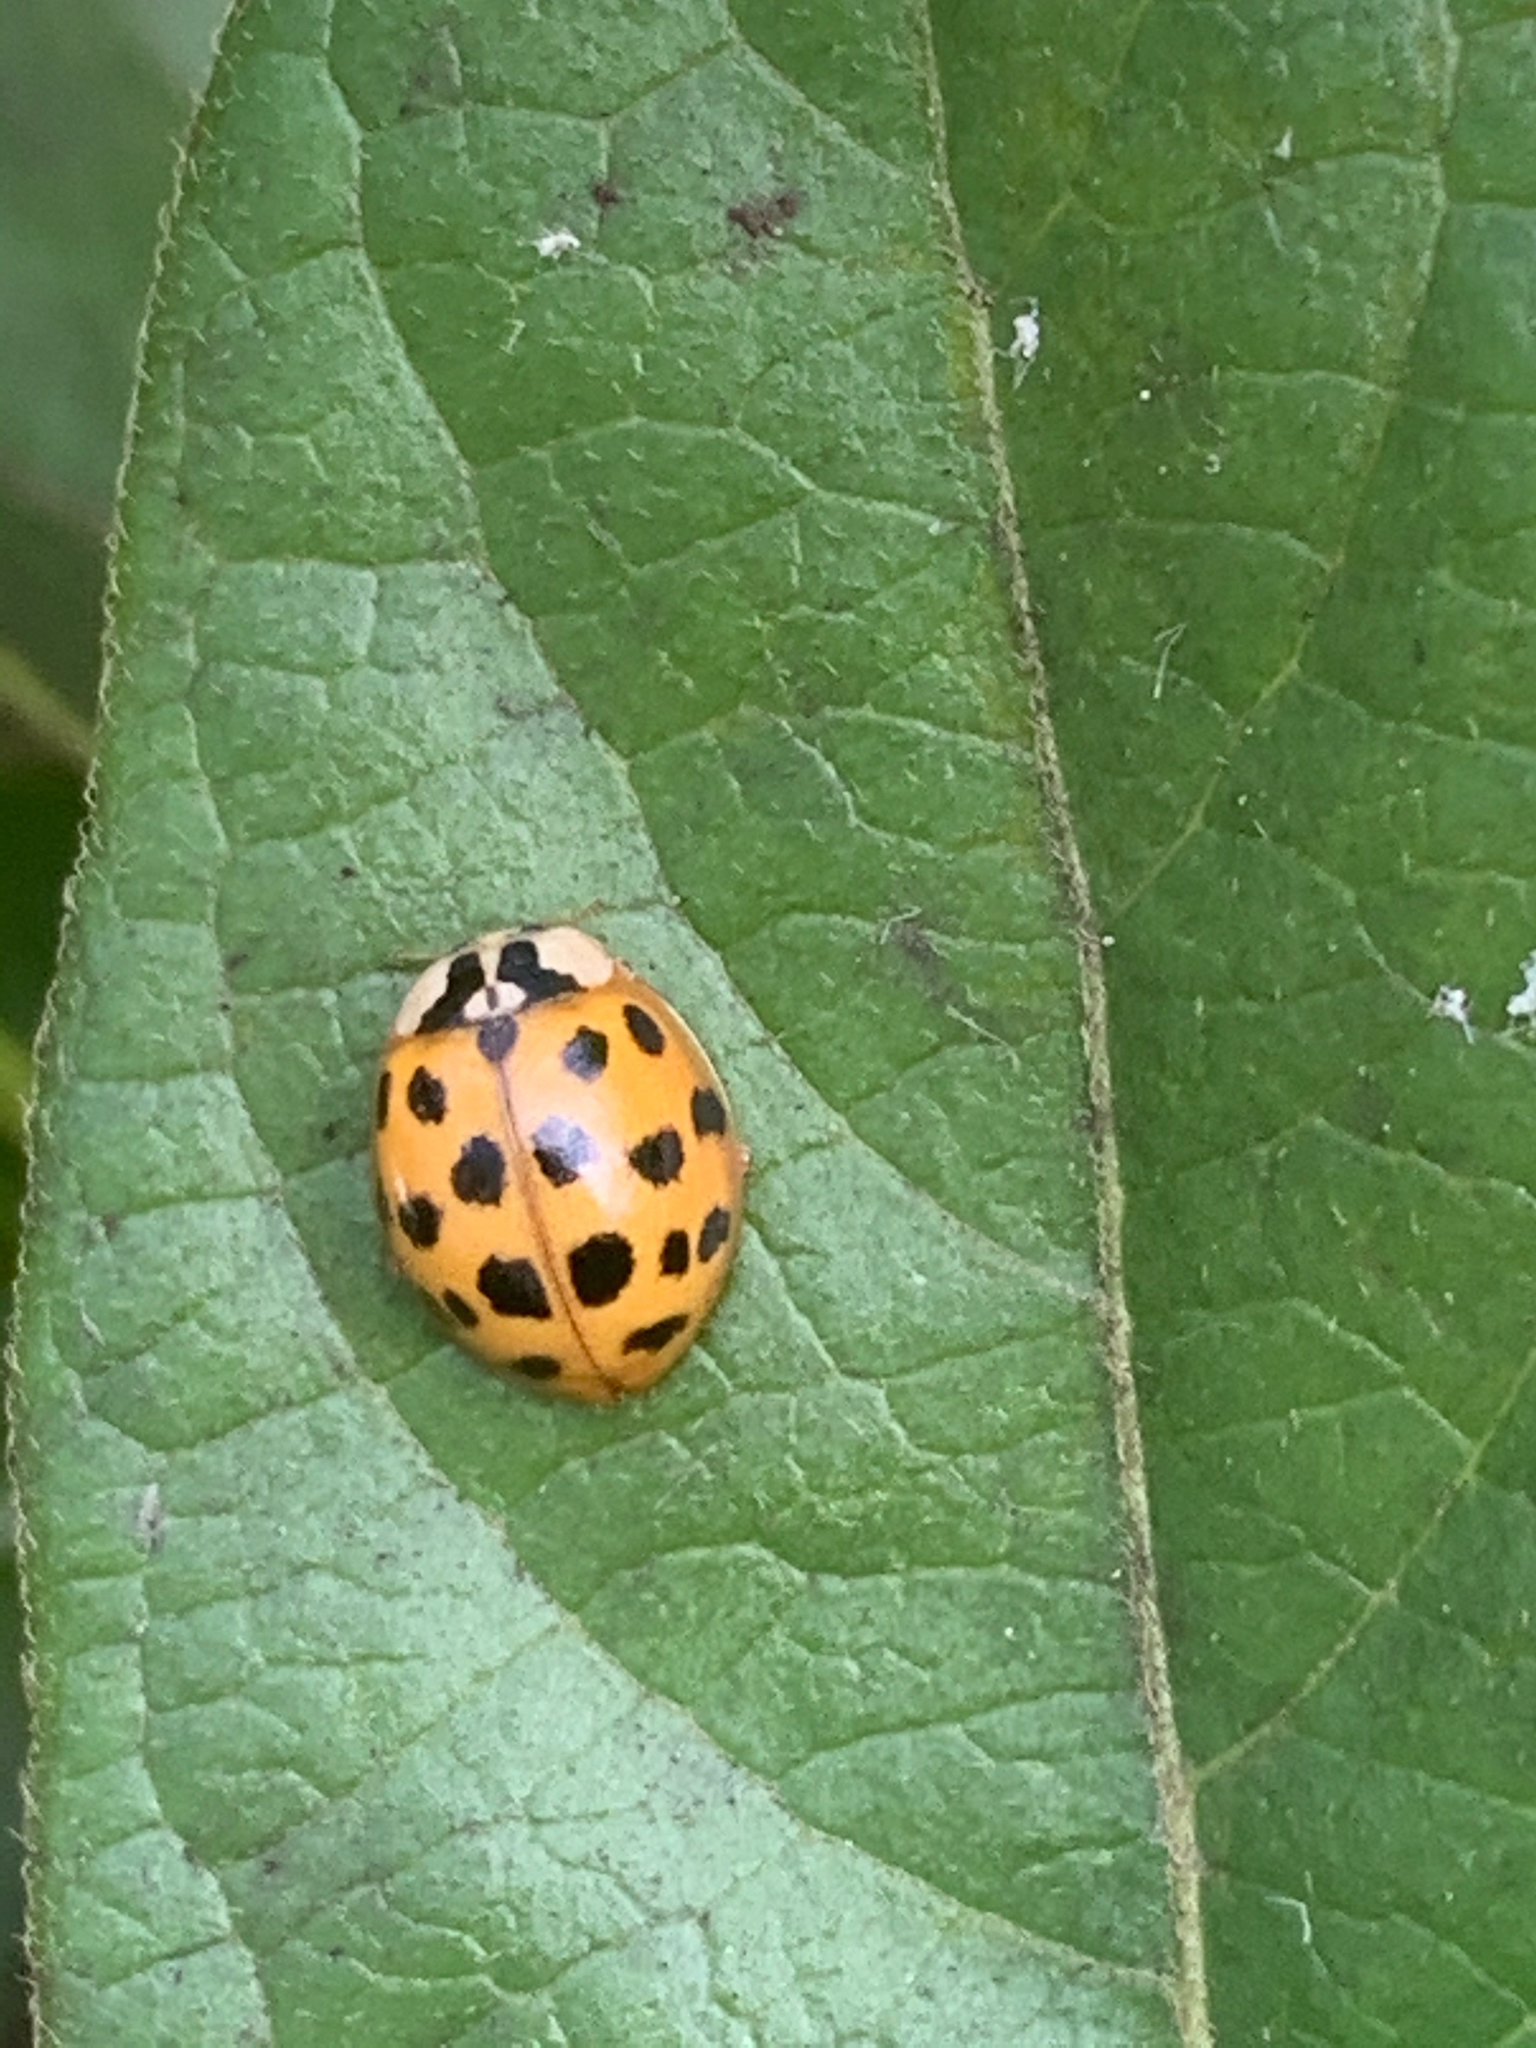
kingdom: Animalia
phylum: Arthropoda
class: Insecta
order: Coleoptera
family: Coccinellidae
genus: Harmonia
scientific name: Harmonia axyridis
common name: Harlequin ladybird
